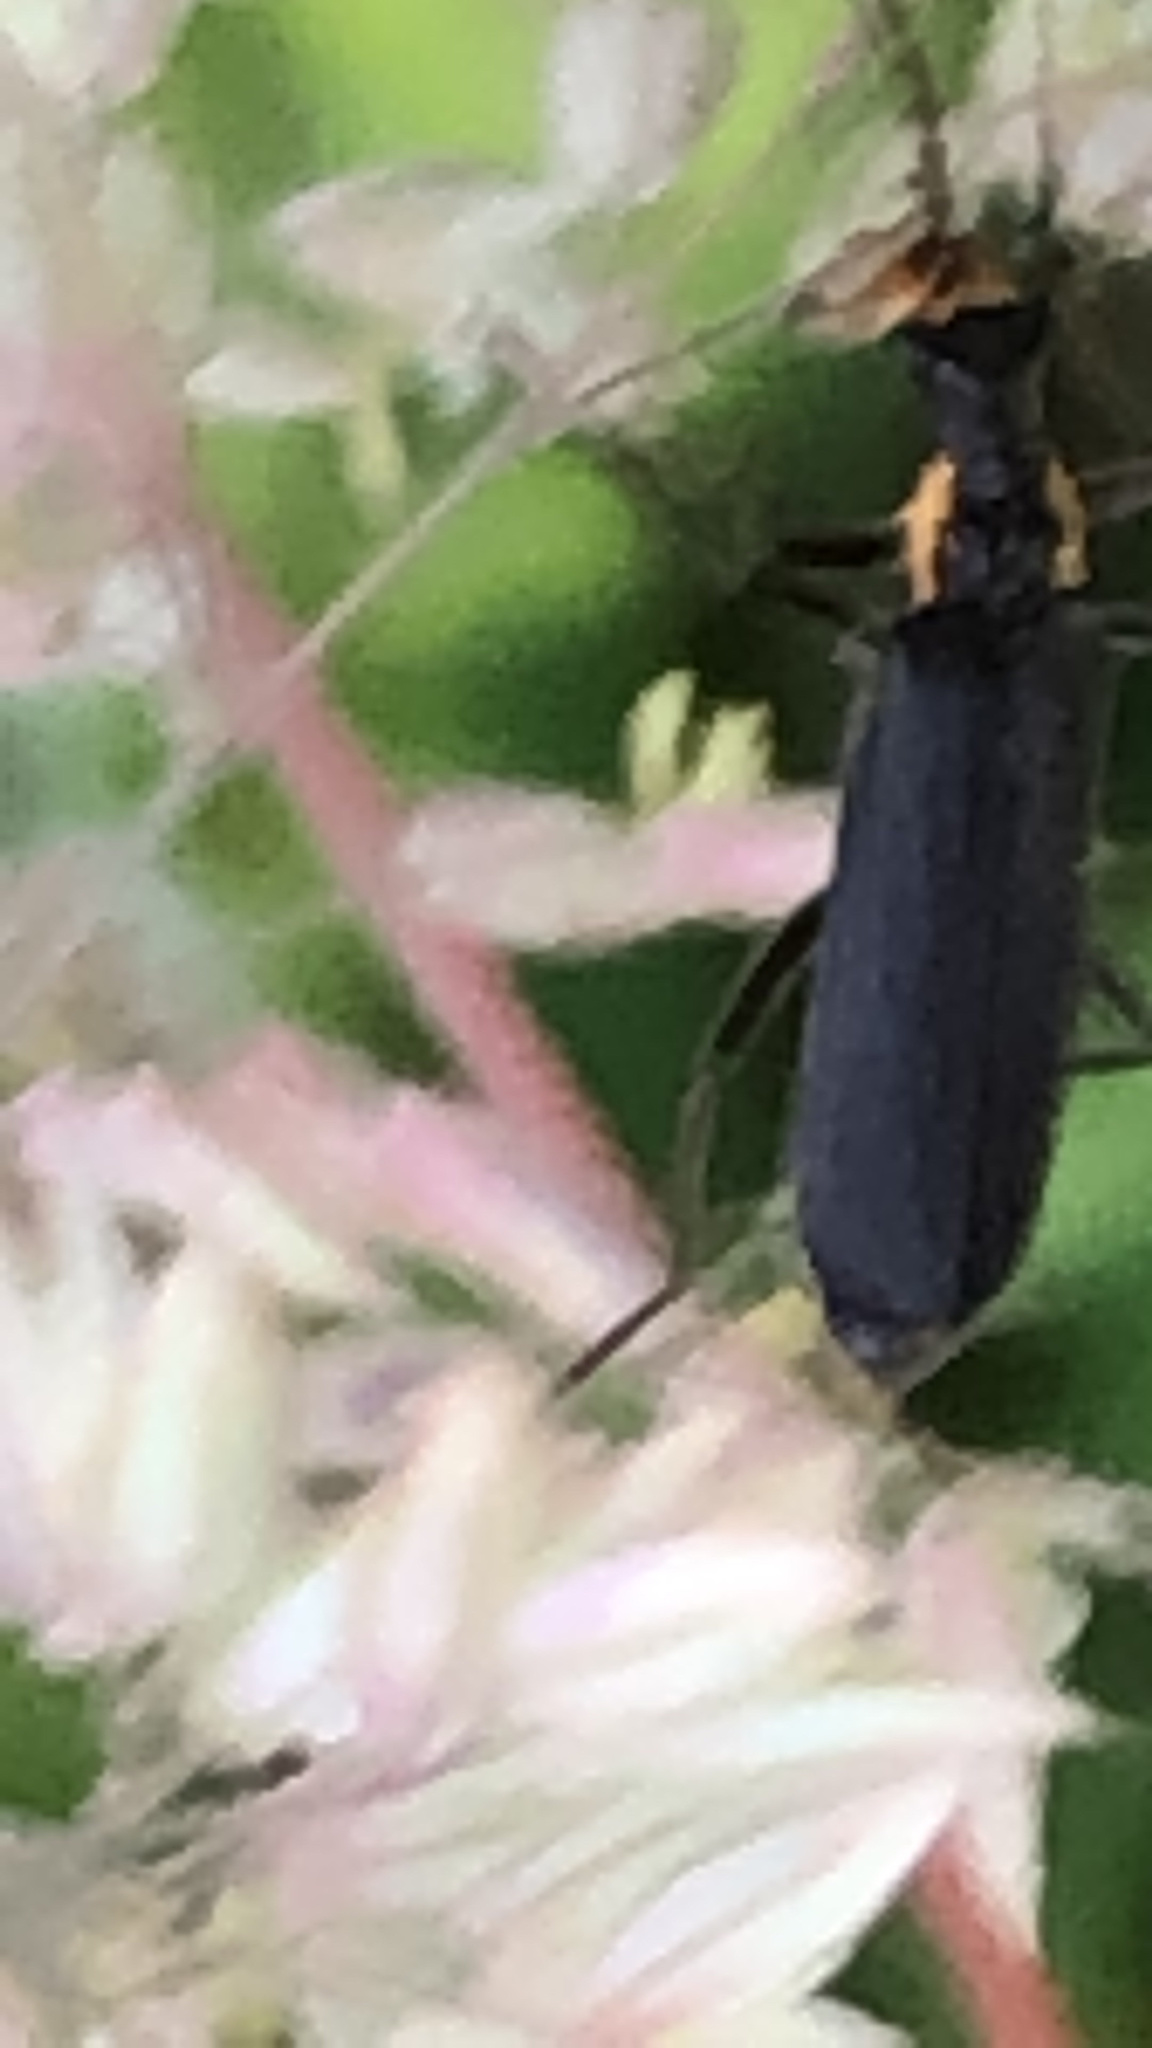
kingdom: Animalia
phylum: Arthropoda
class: Insecta
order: Coleoptera
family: Cantharidae
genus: Podabrus
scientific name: Podabrus rugosulus
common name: Wrinkled soldier beetle
